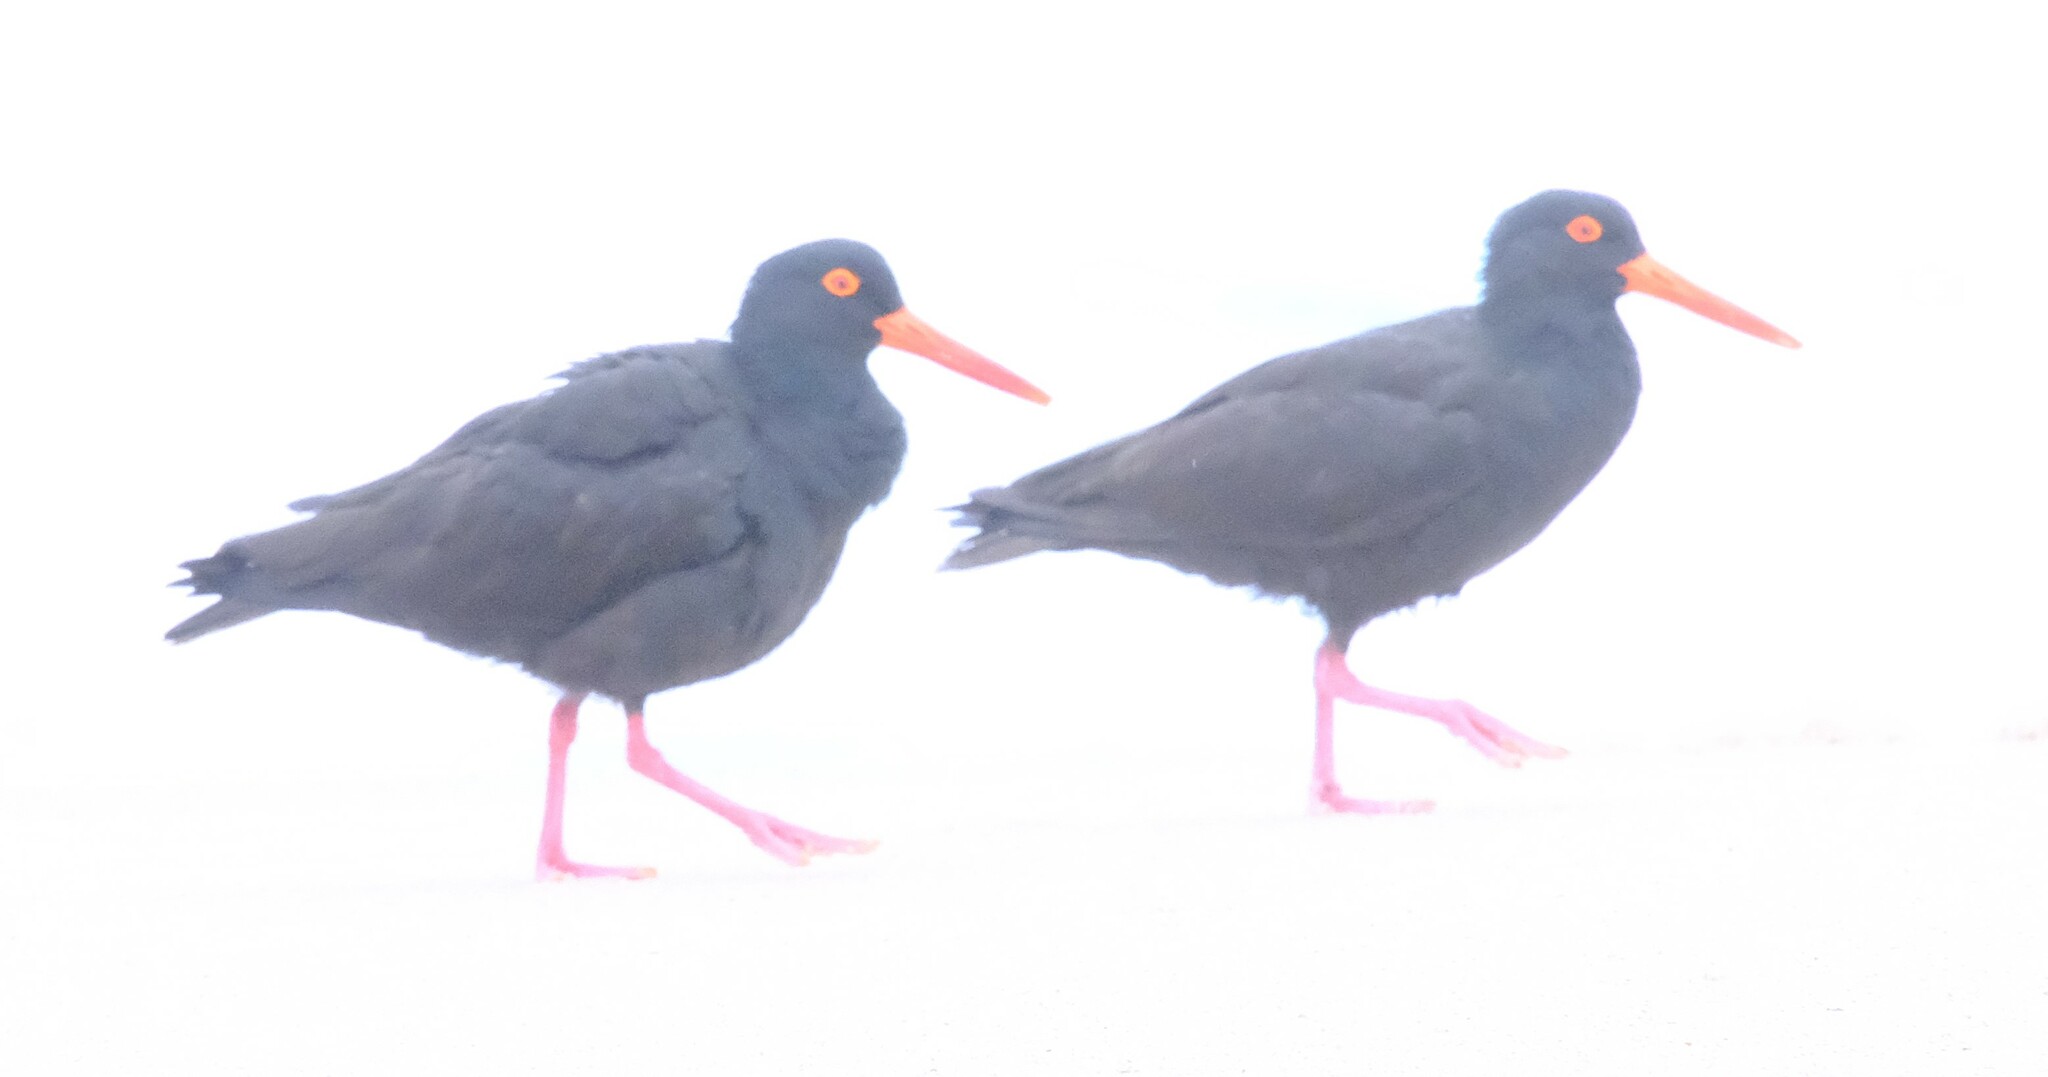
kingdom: Animalia
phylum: Chordata
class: Aves
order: Charadriiformes
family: Haematopodidae
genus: Haematopus
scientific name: Haematopus fuliginosus
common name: Sooty oystercatcher
